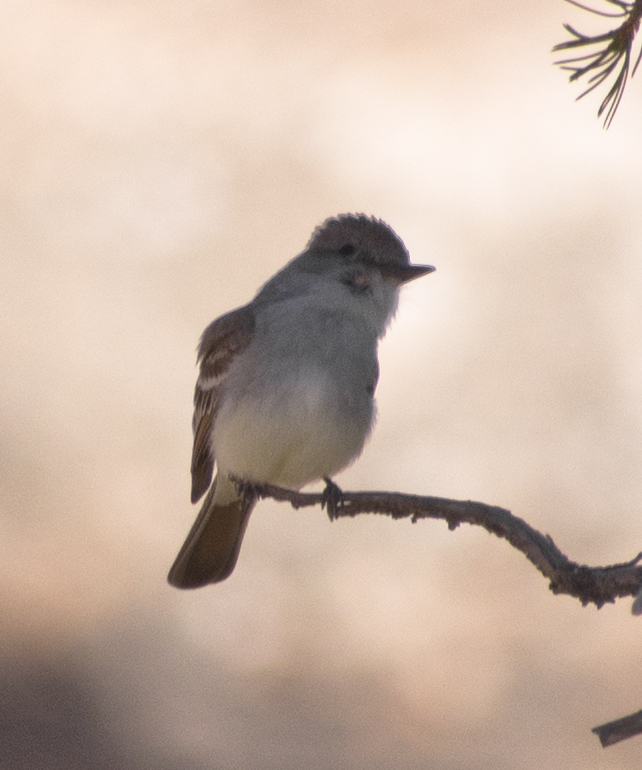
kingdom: Animalia
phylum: Chordata
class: Aves
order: Passeriformes
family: Tyrannidae
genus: Myiarchus
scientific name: Myiarchus cinerascens
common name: Ash-throated flycatcher
